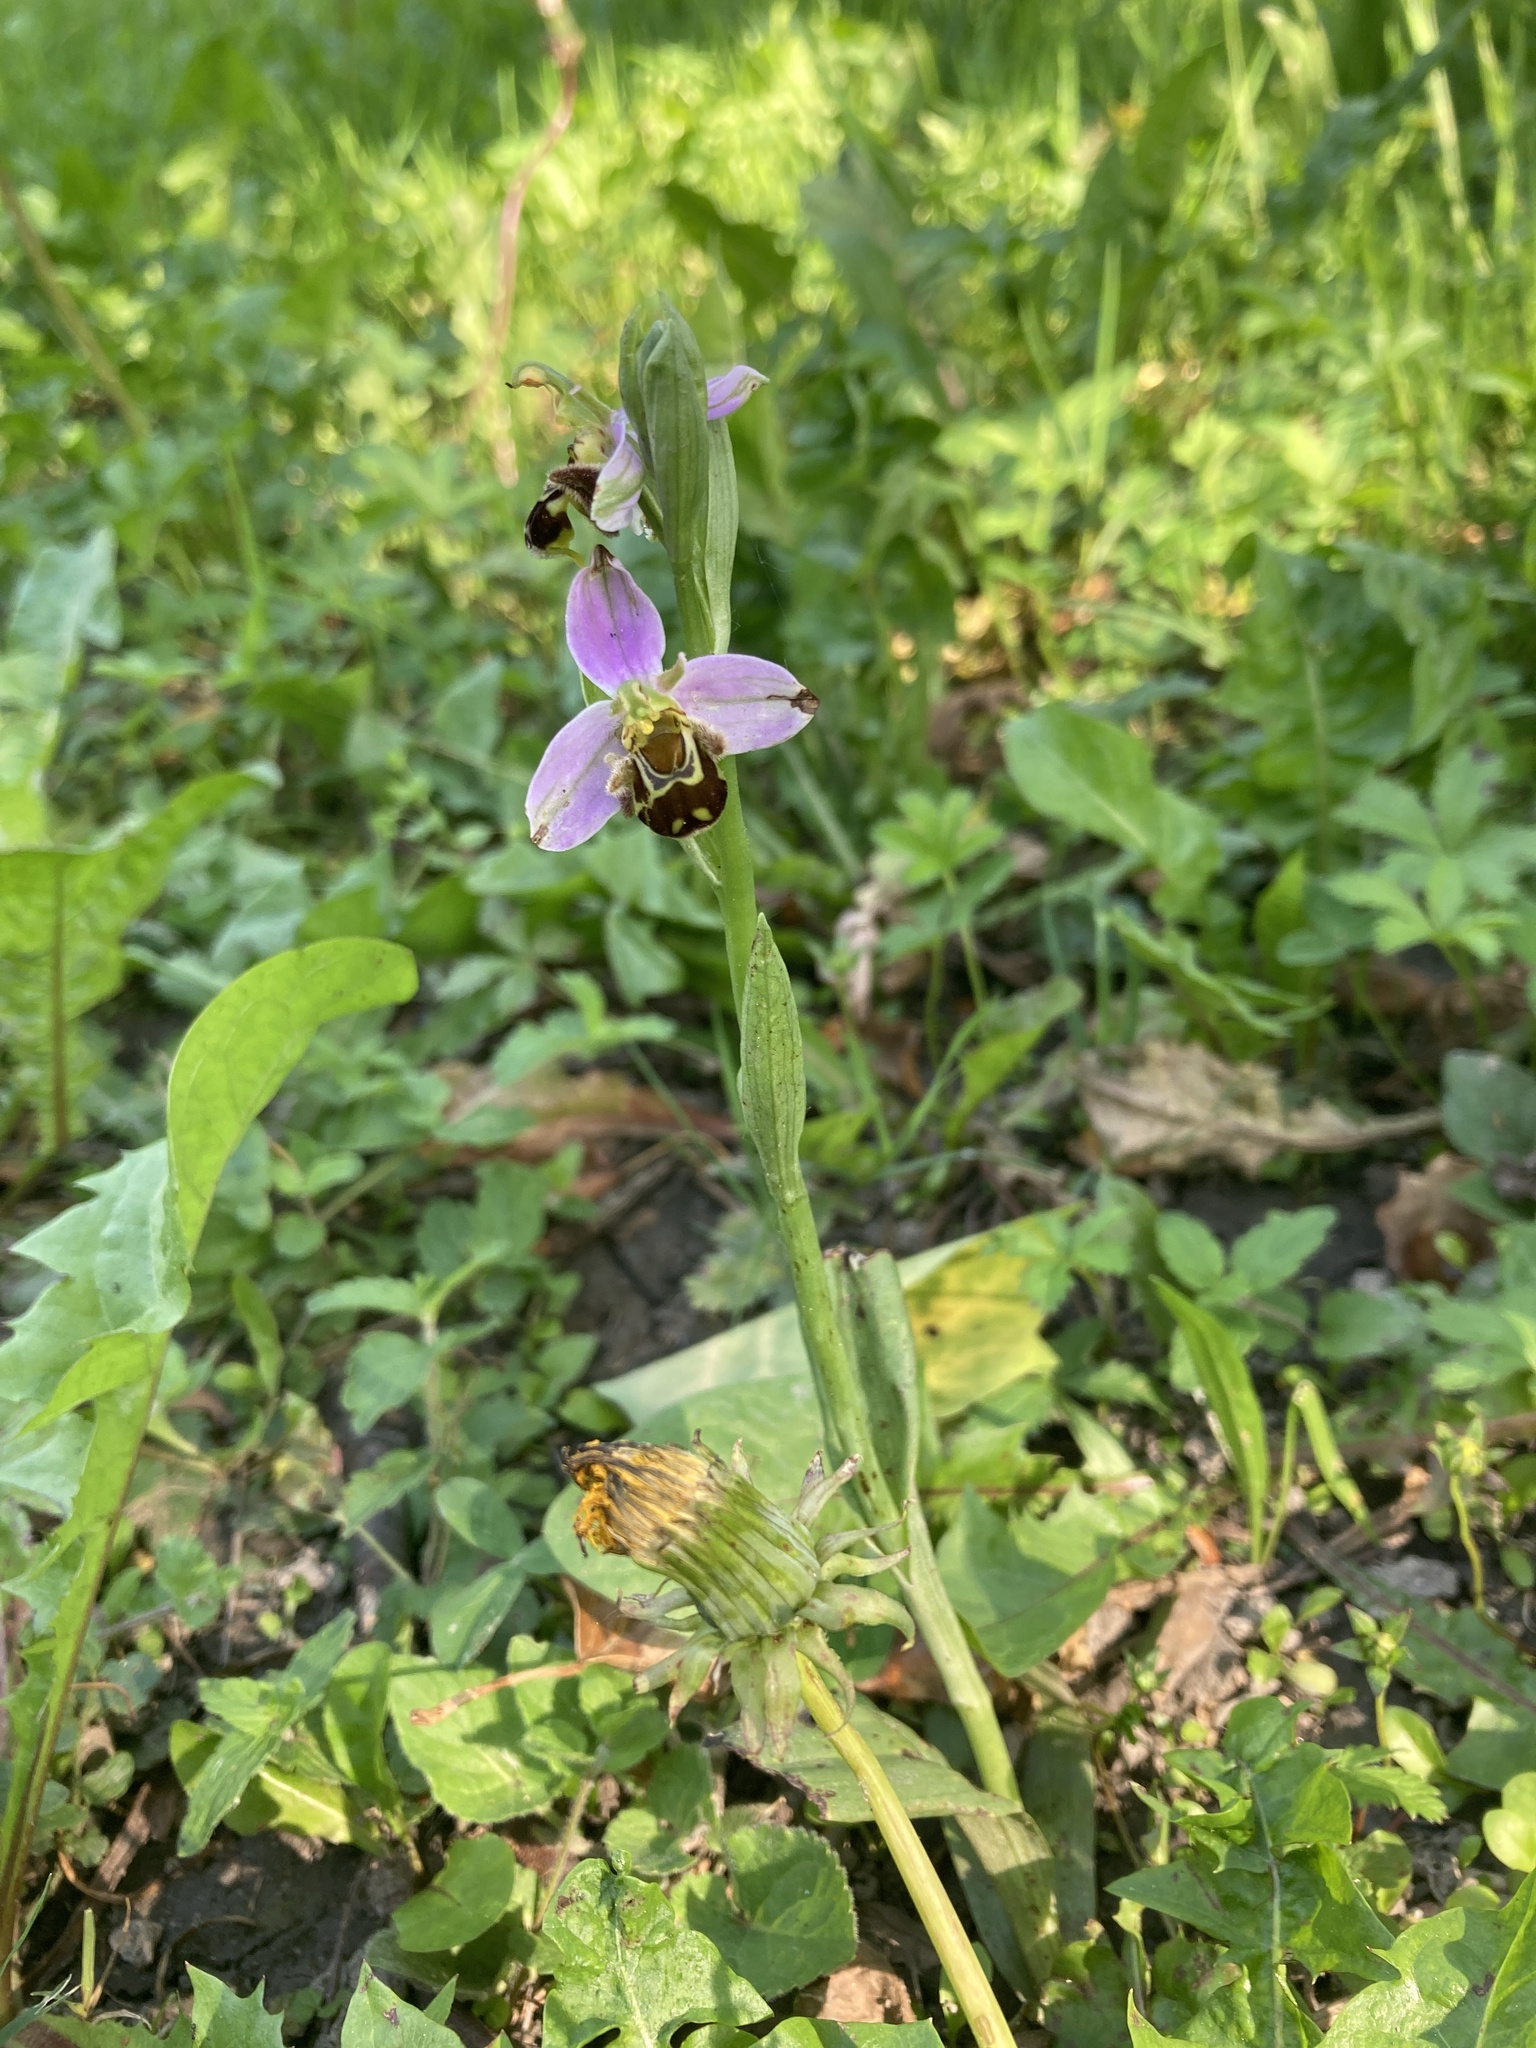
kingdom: Plantae
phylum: Tracheophyta
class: Liliopsida
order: Asparagales
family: Orchidaceae
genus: Ophrys
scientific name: Ophrys apifera
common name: Bee orchid
